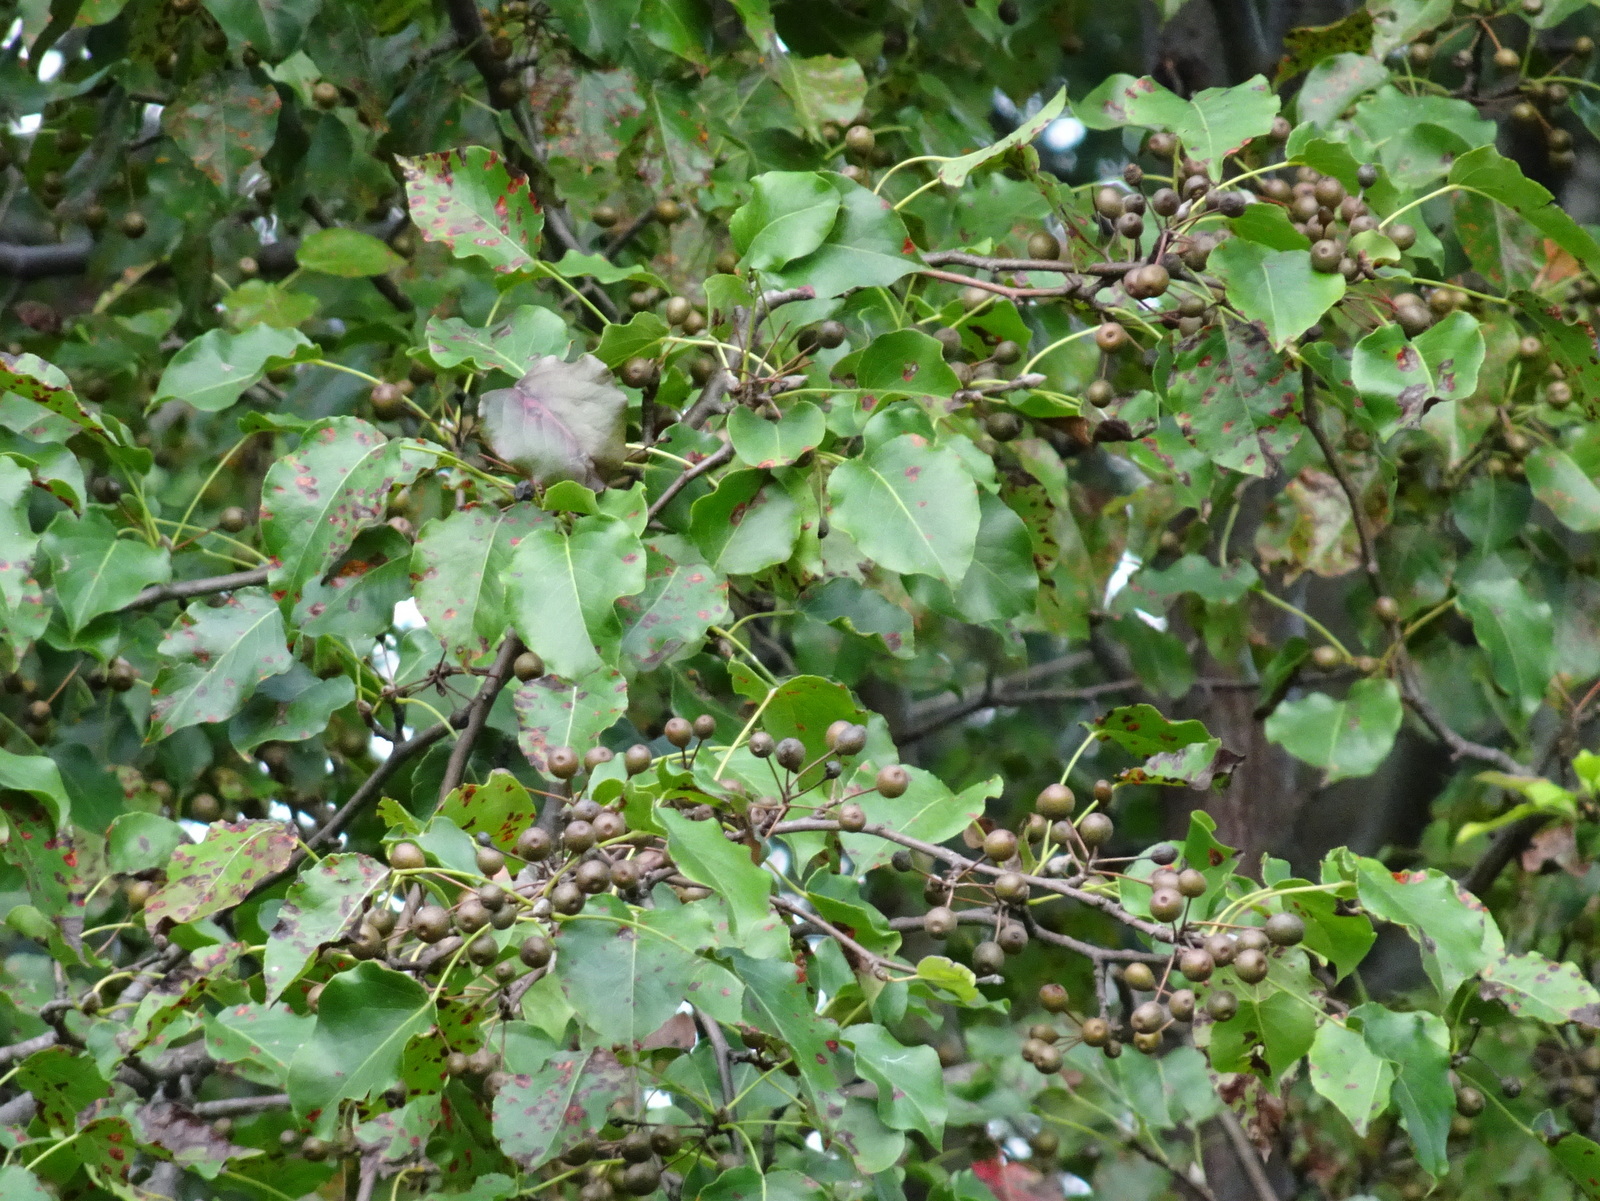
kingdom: Plantae
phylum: Tracheophyta
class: Magnoliopsida
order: Rosales
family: Rosaceae
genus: Pyrus
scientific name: Pyrus calleryana
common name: Callery pear
